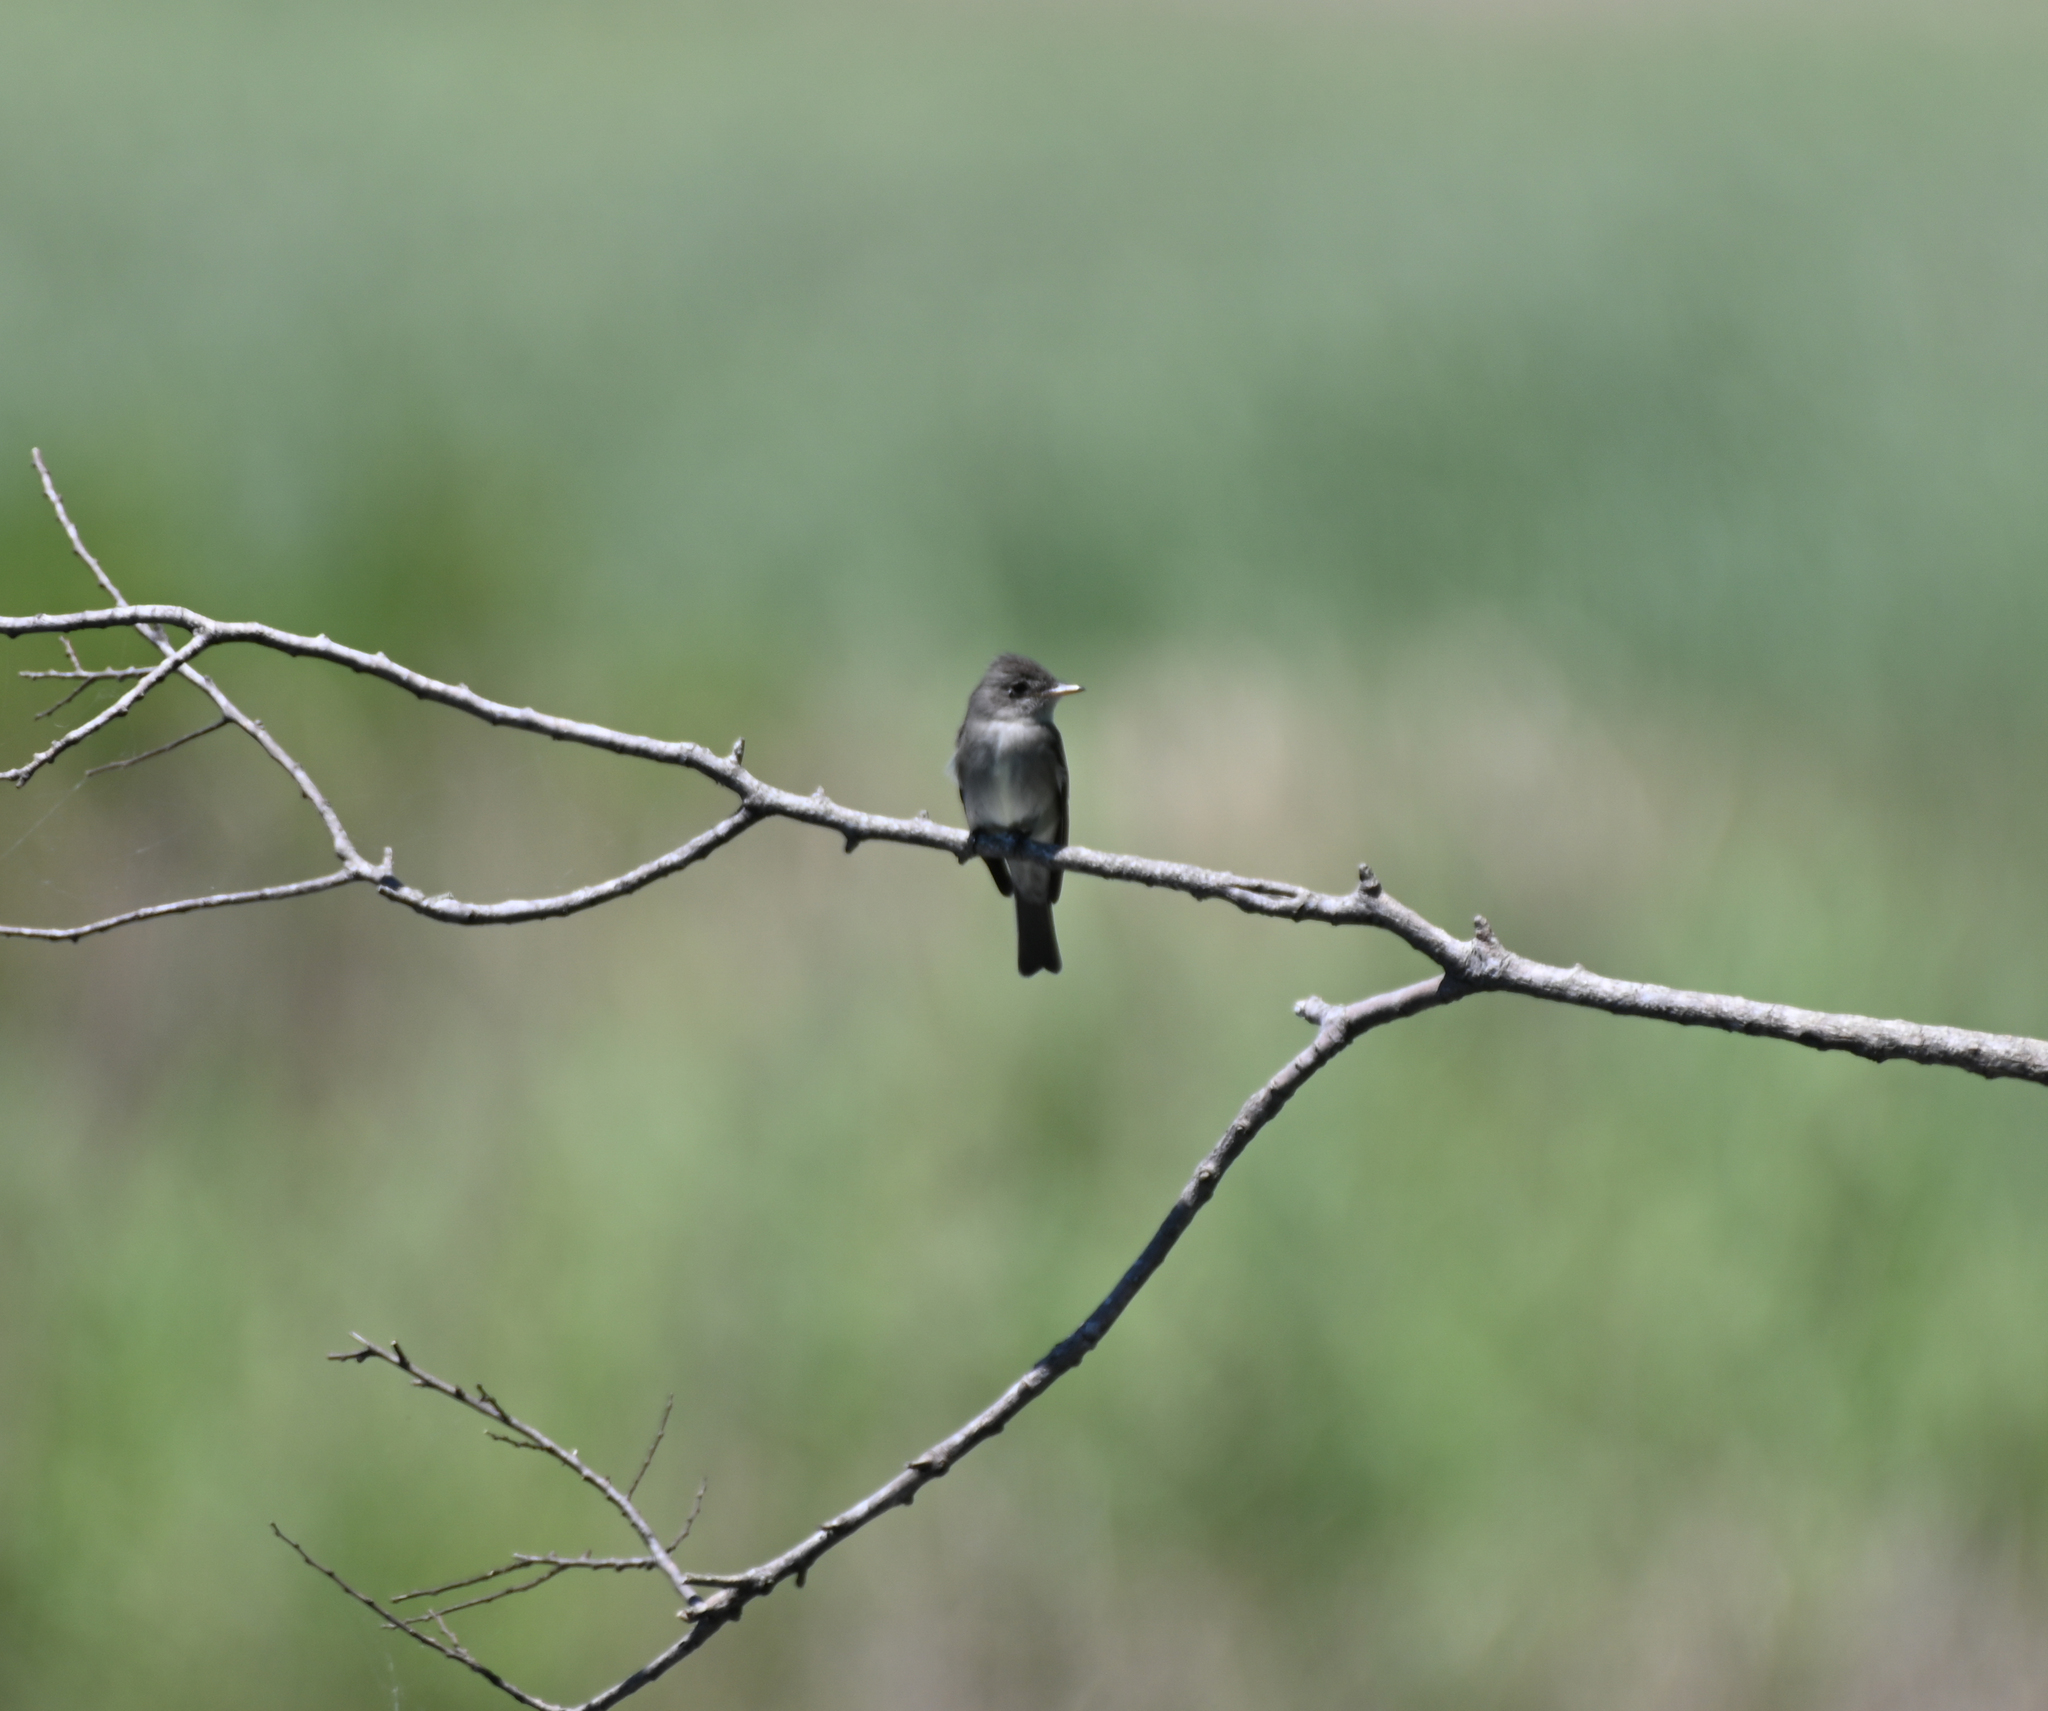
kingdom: Animalia
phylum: Chordata
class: Aves
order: Passeriformes
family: Tyrannidae
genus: Contopus
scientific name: Contopus virens
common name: Eastern wood-pewee
